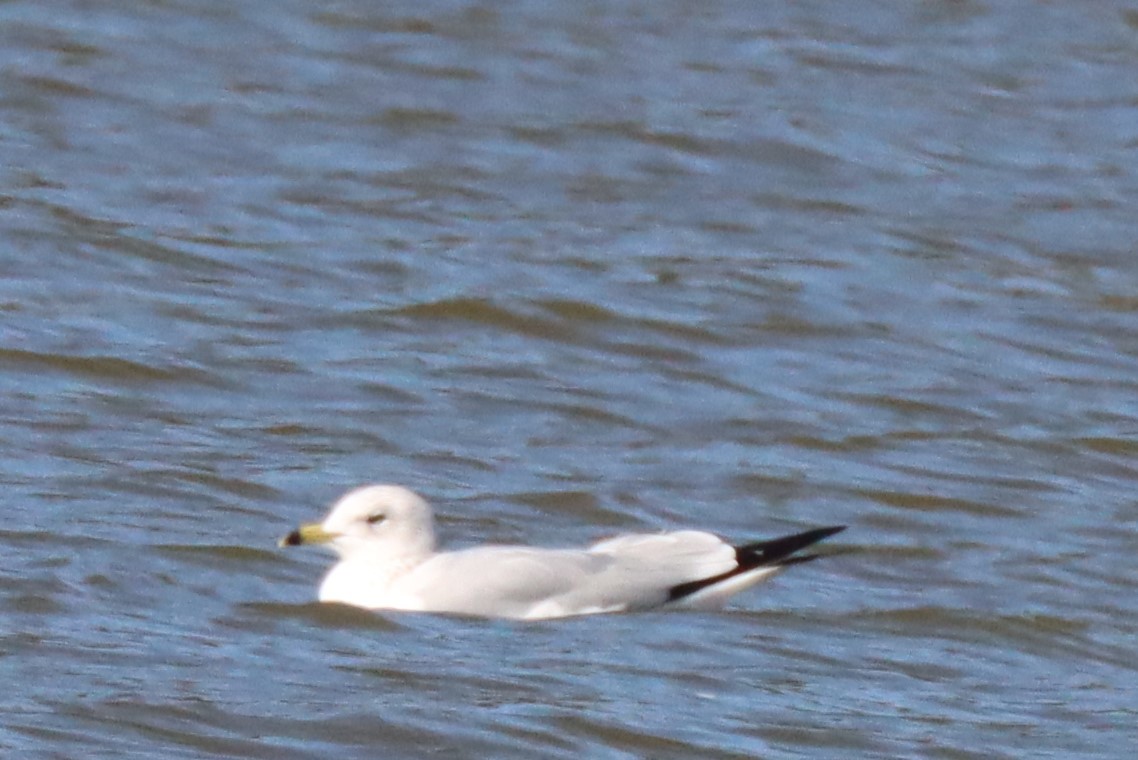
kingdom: Animalia
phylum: Chordata
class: Aves
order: Charadriiformes
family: Laridae
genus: Larus
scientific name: Larus delawarensis
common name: Ring-billed gull
